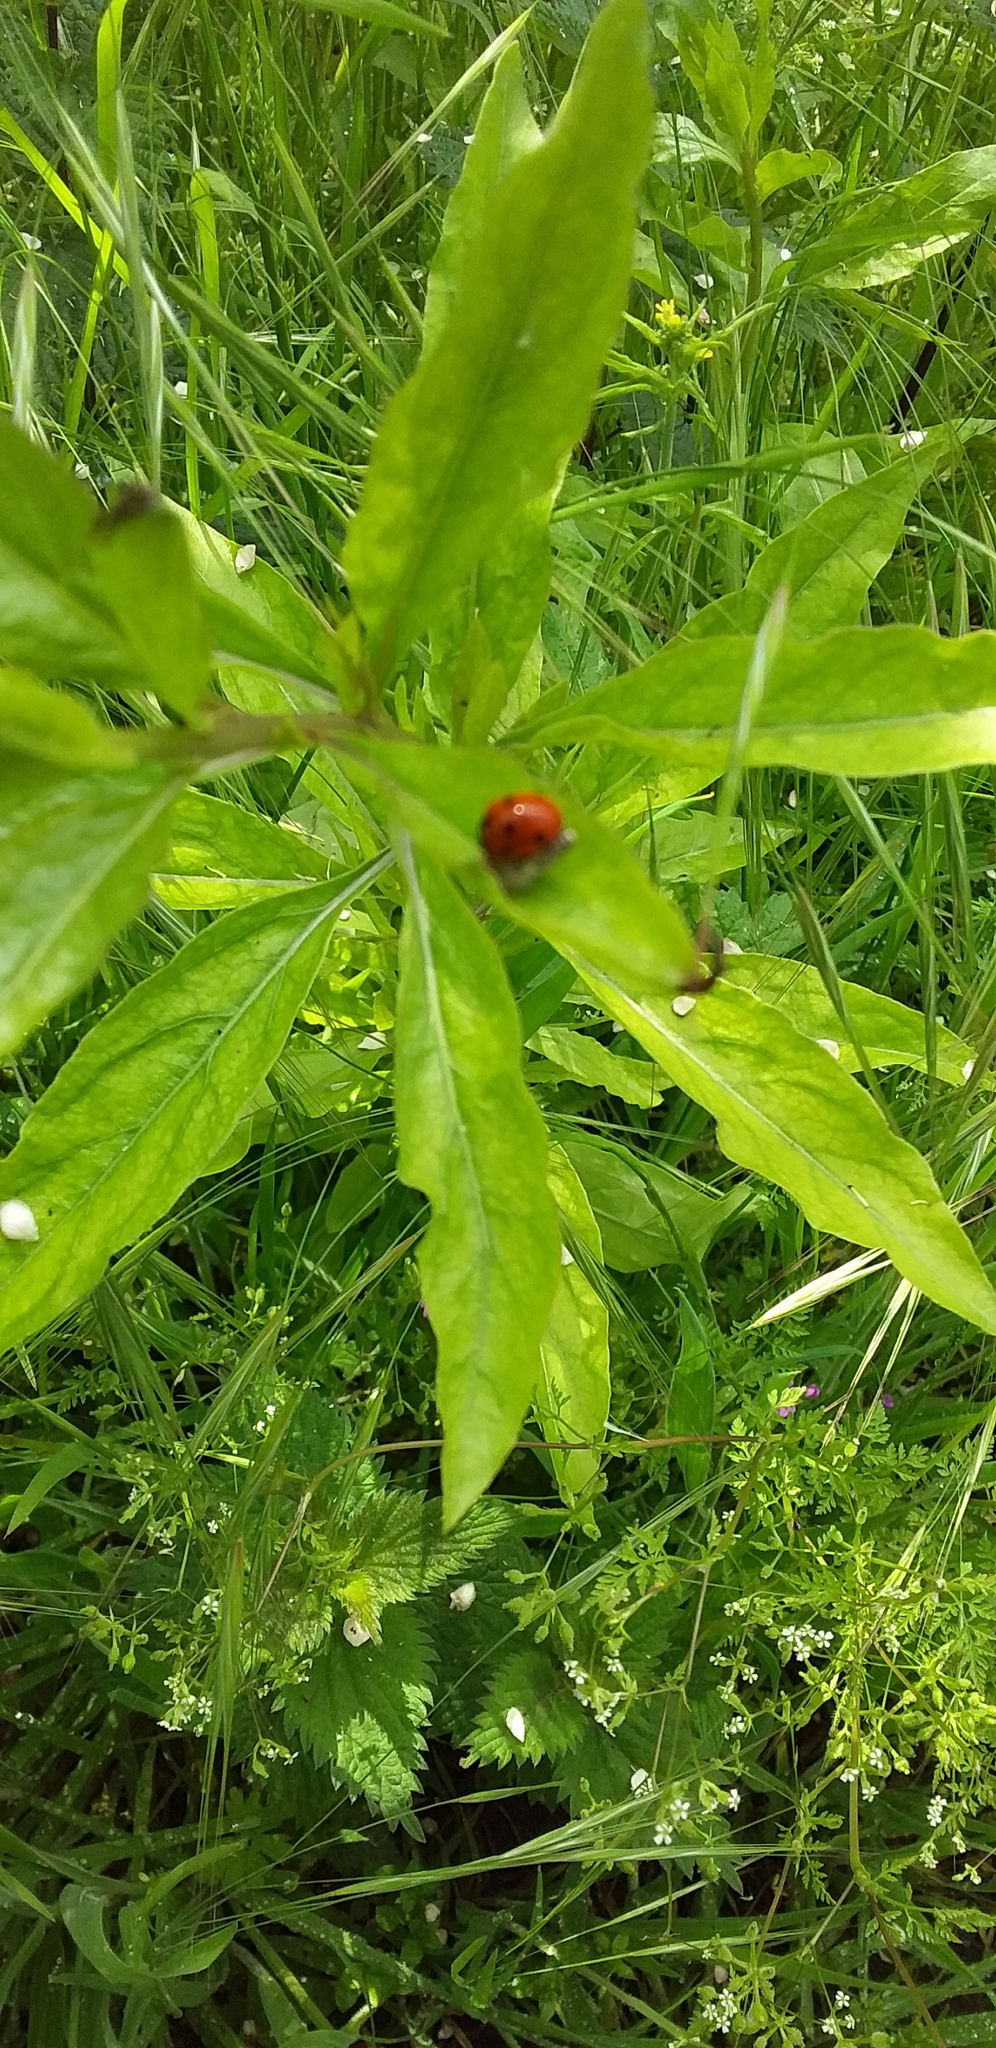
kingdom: Animalia
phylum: Arthropoda
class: Insecta
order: Coleoptera
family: Coccinellidae
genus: Coccinella
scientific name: Coccinella septempunctata
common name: Sevenspotted lady beetle
